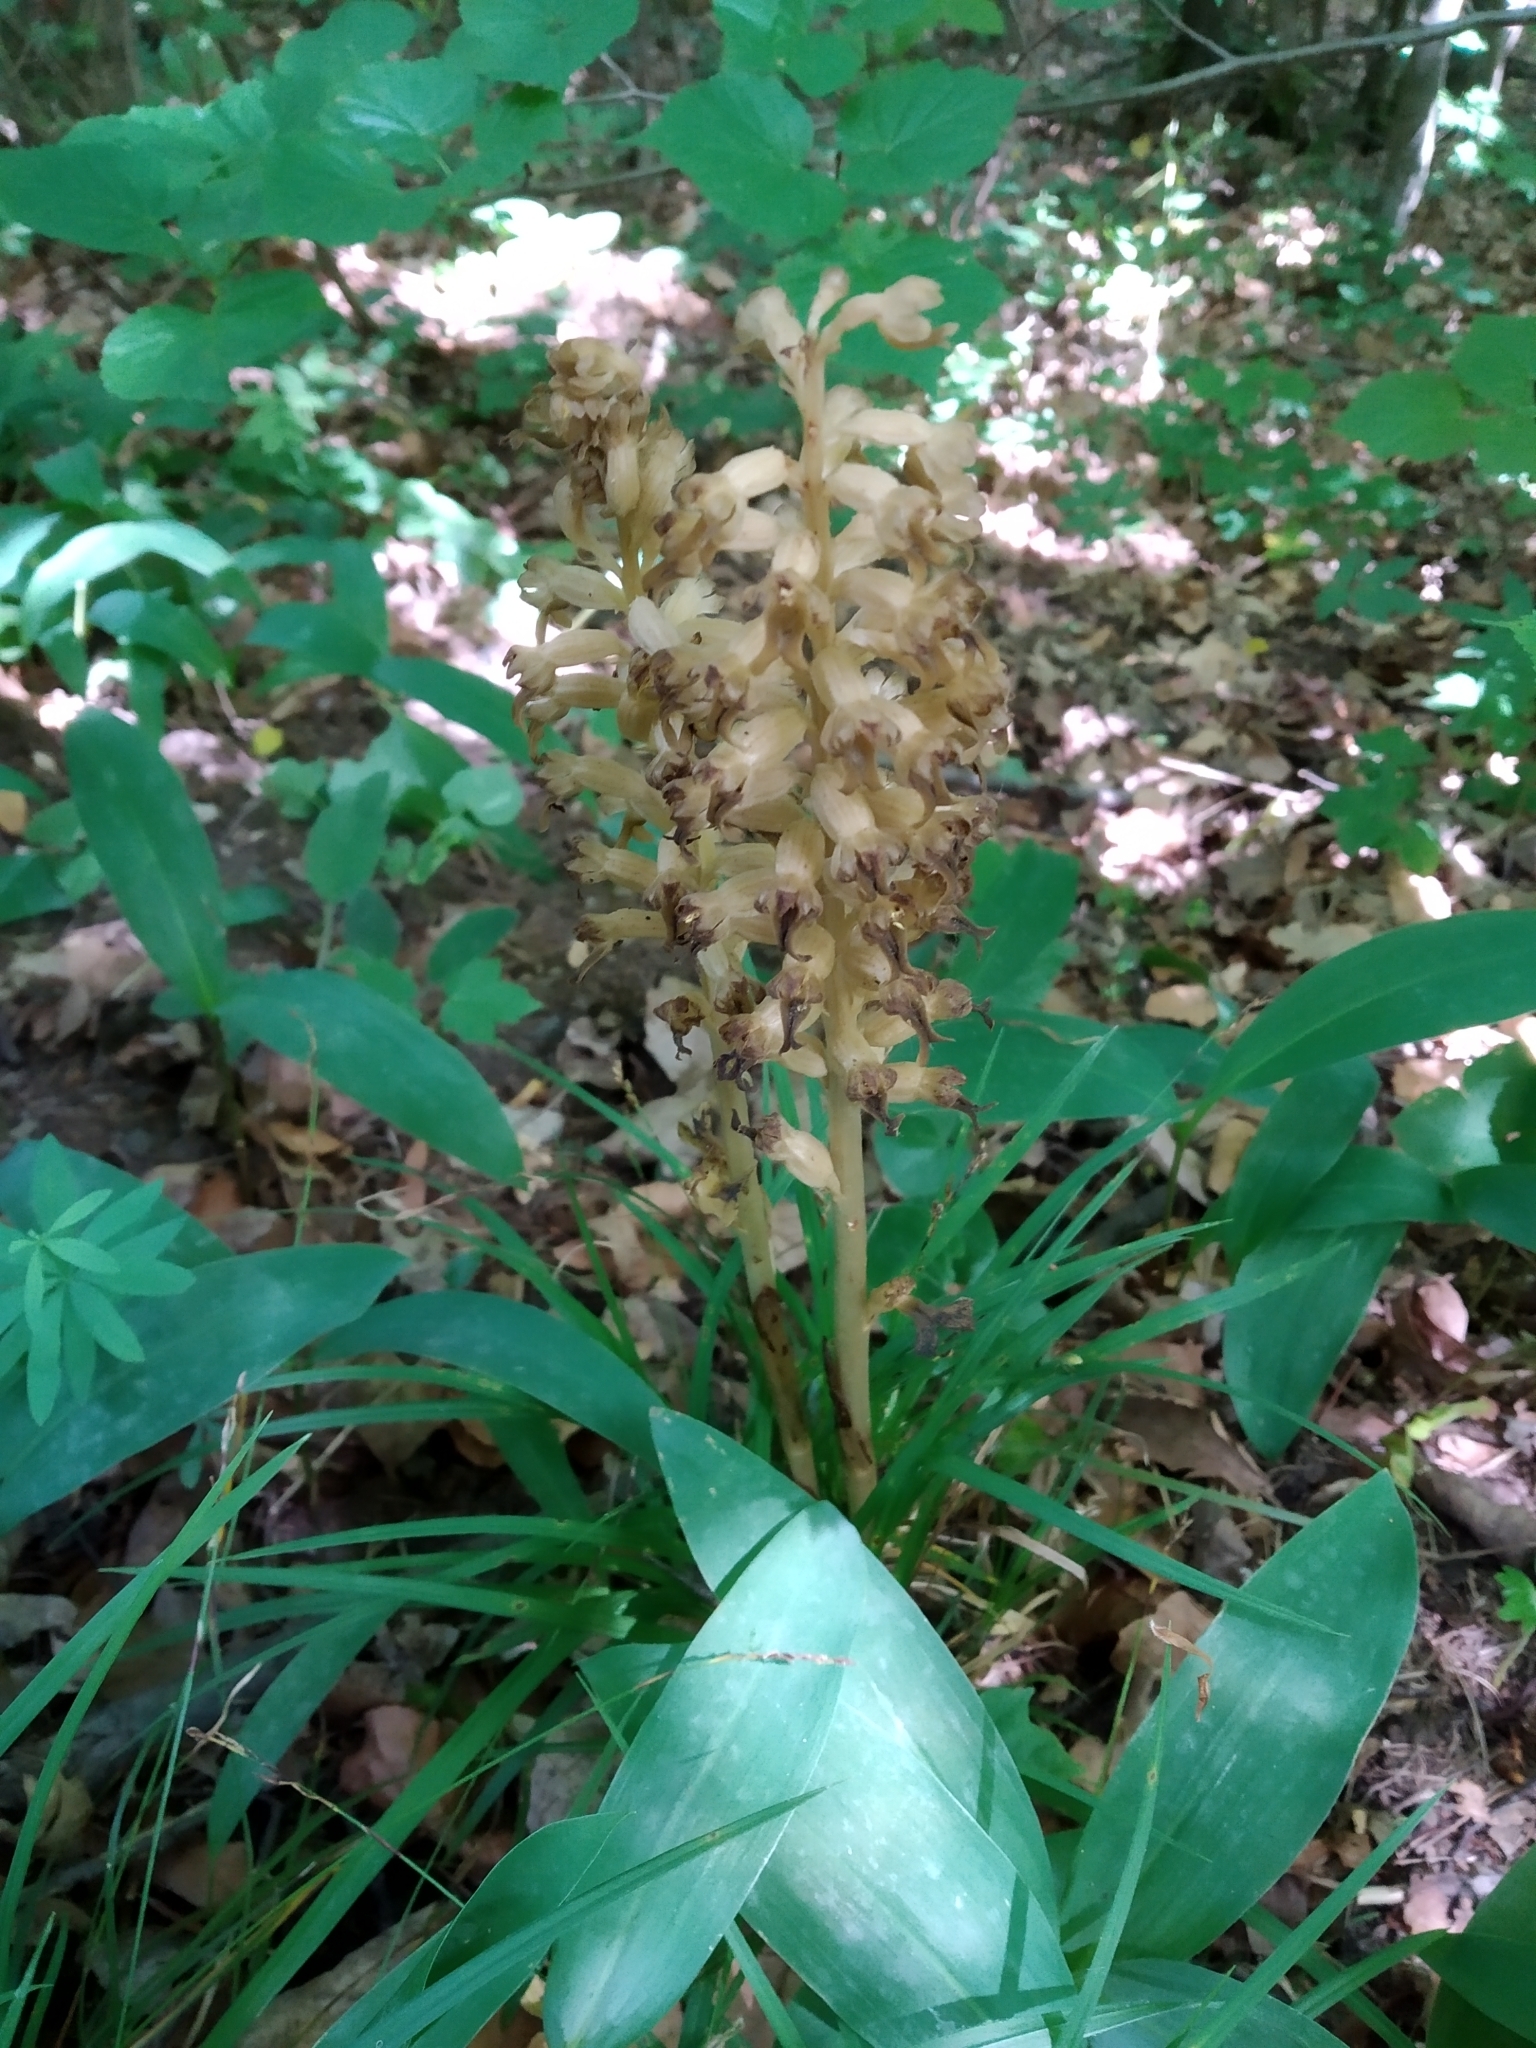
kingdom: Plantae
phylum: Tracheophyta
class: Liliopsida
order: Asparagales
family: Orchidaceae
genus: Neottia
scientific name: Neottia nidus-avis
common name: Bird's-nest orchid
